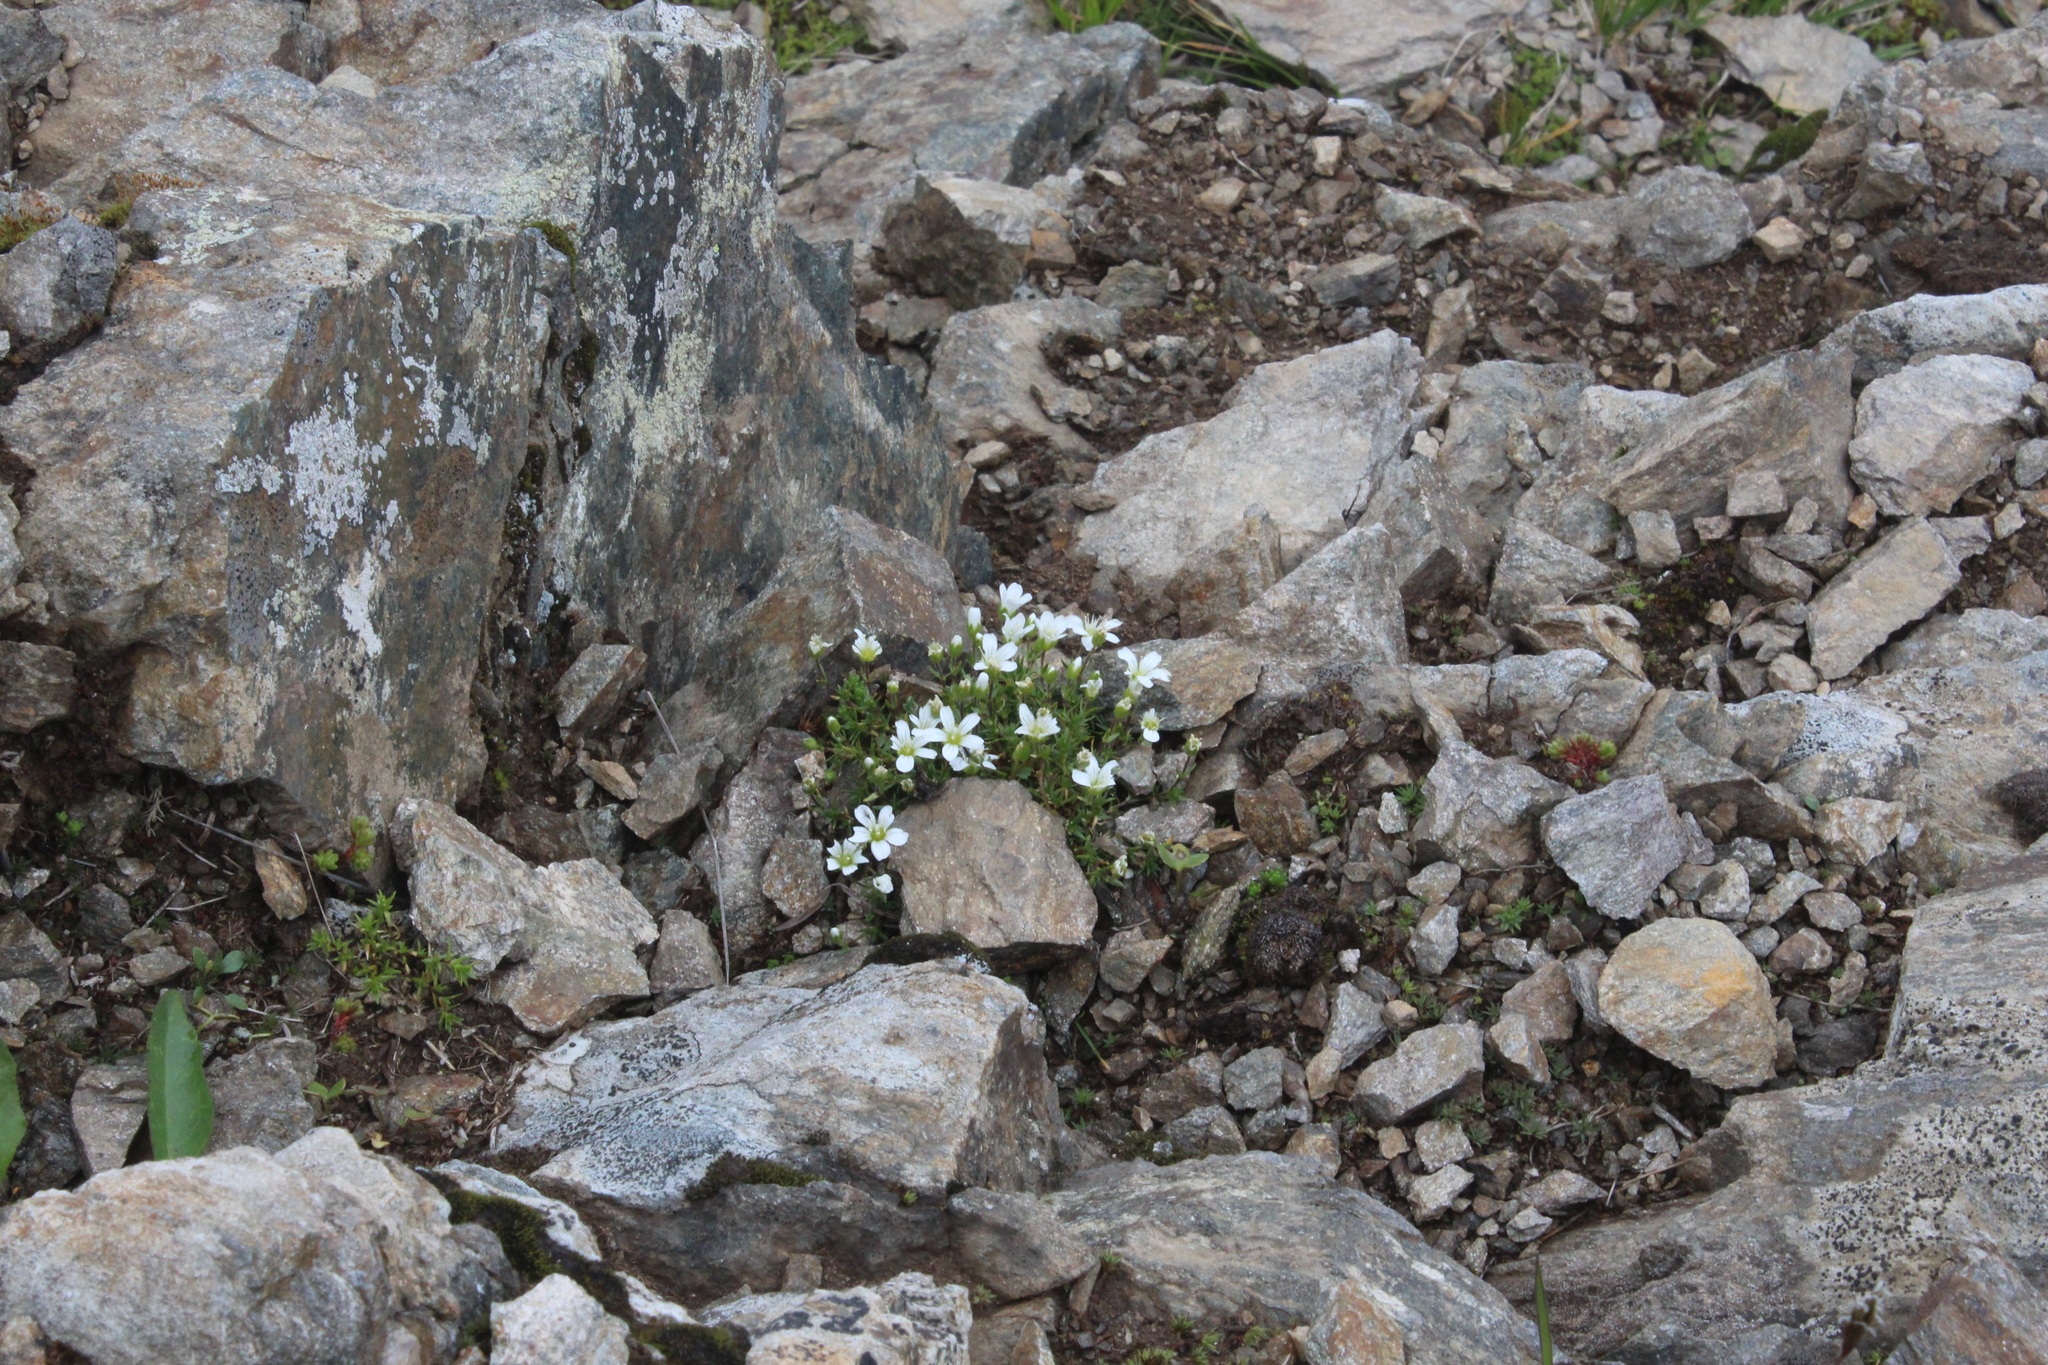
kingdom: Plantae
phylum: Tracheophyta
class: Magnoliopsida
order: Caryophyllales
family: Caryophyllaceae
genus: Pseudocherleria
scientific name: Pseudocherleria imbricata
